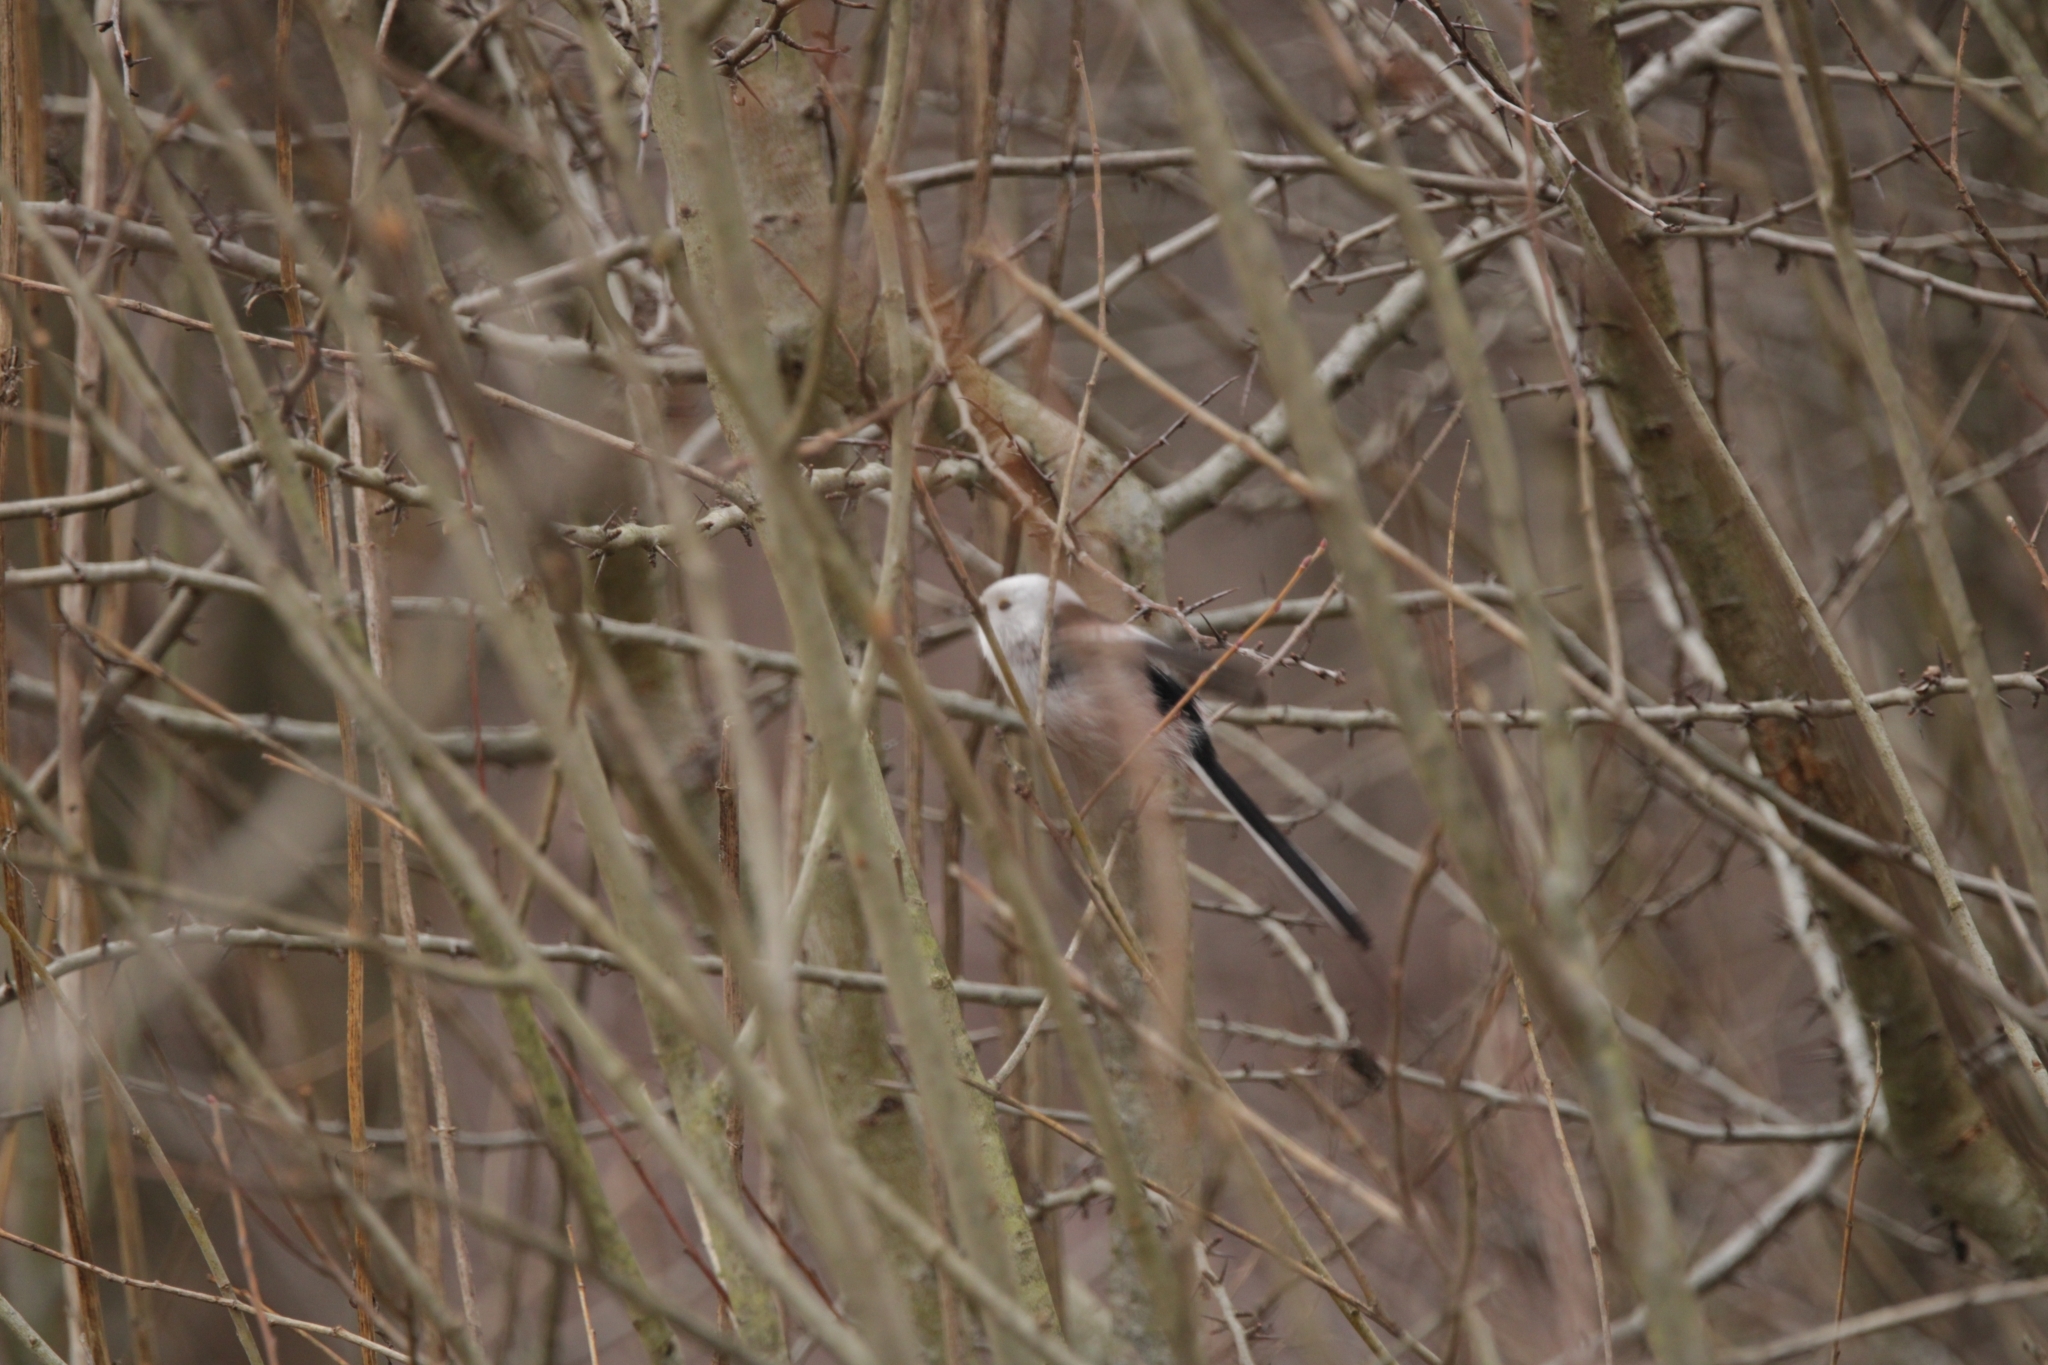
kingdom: Animalia
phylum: Chordata
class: Aves
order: Passeriformes
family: Aegithalidae
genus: Aegithalos
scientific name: Aegithalos caudatus
